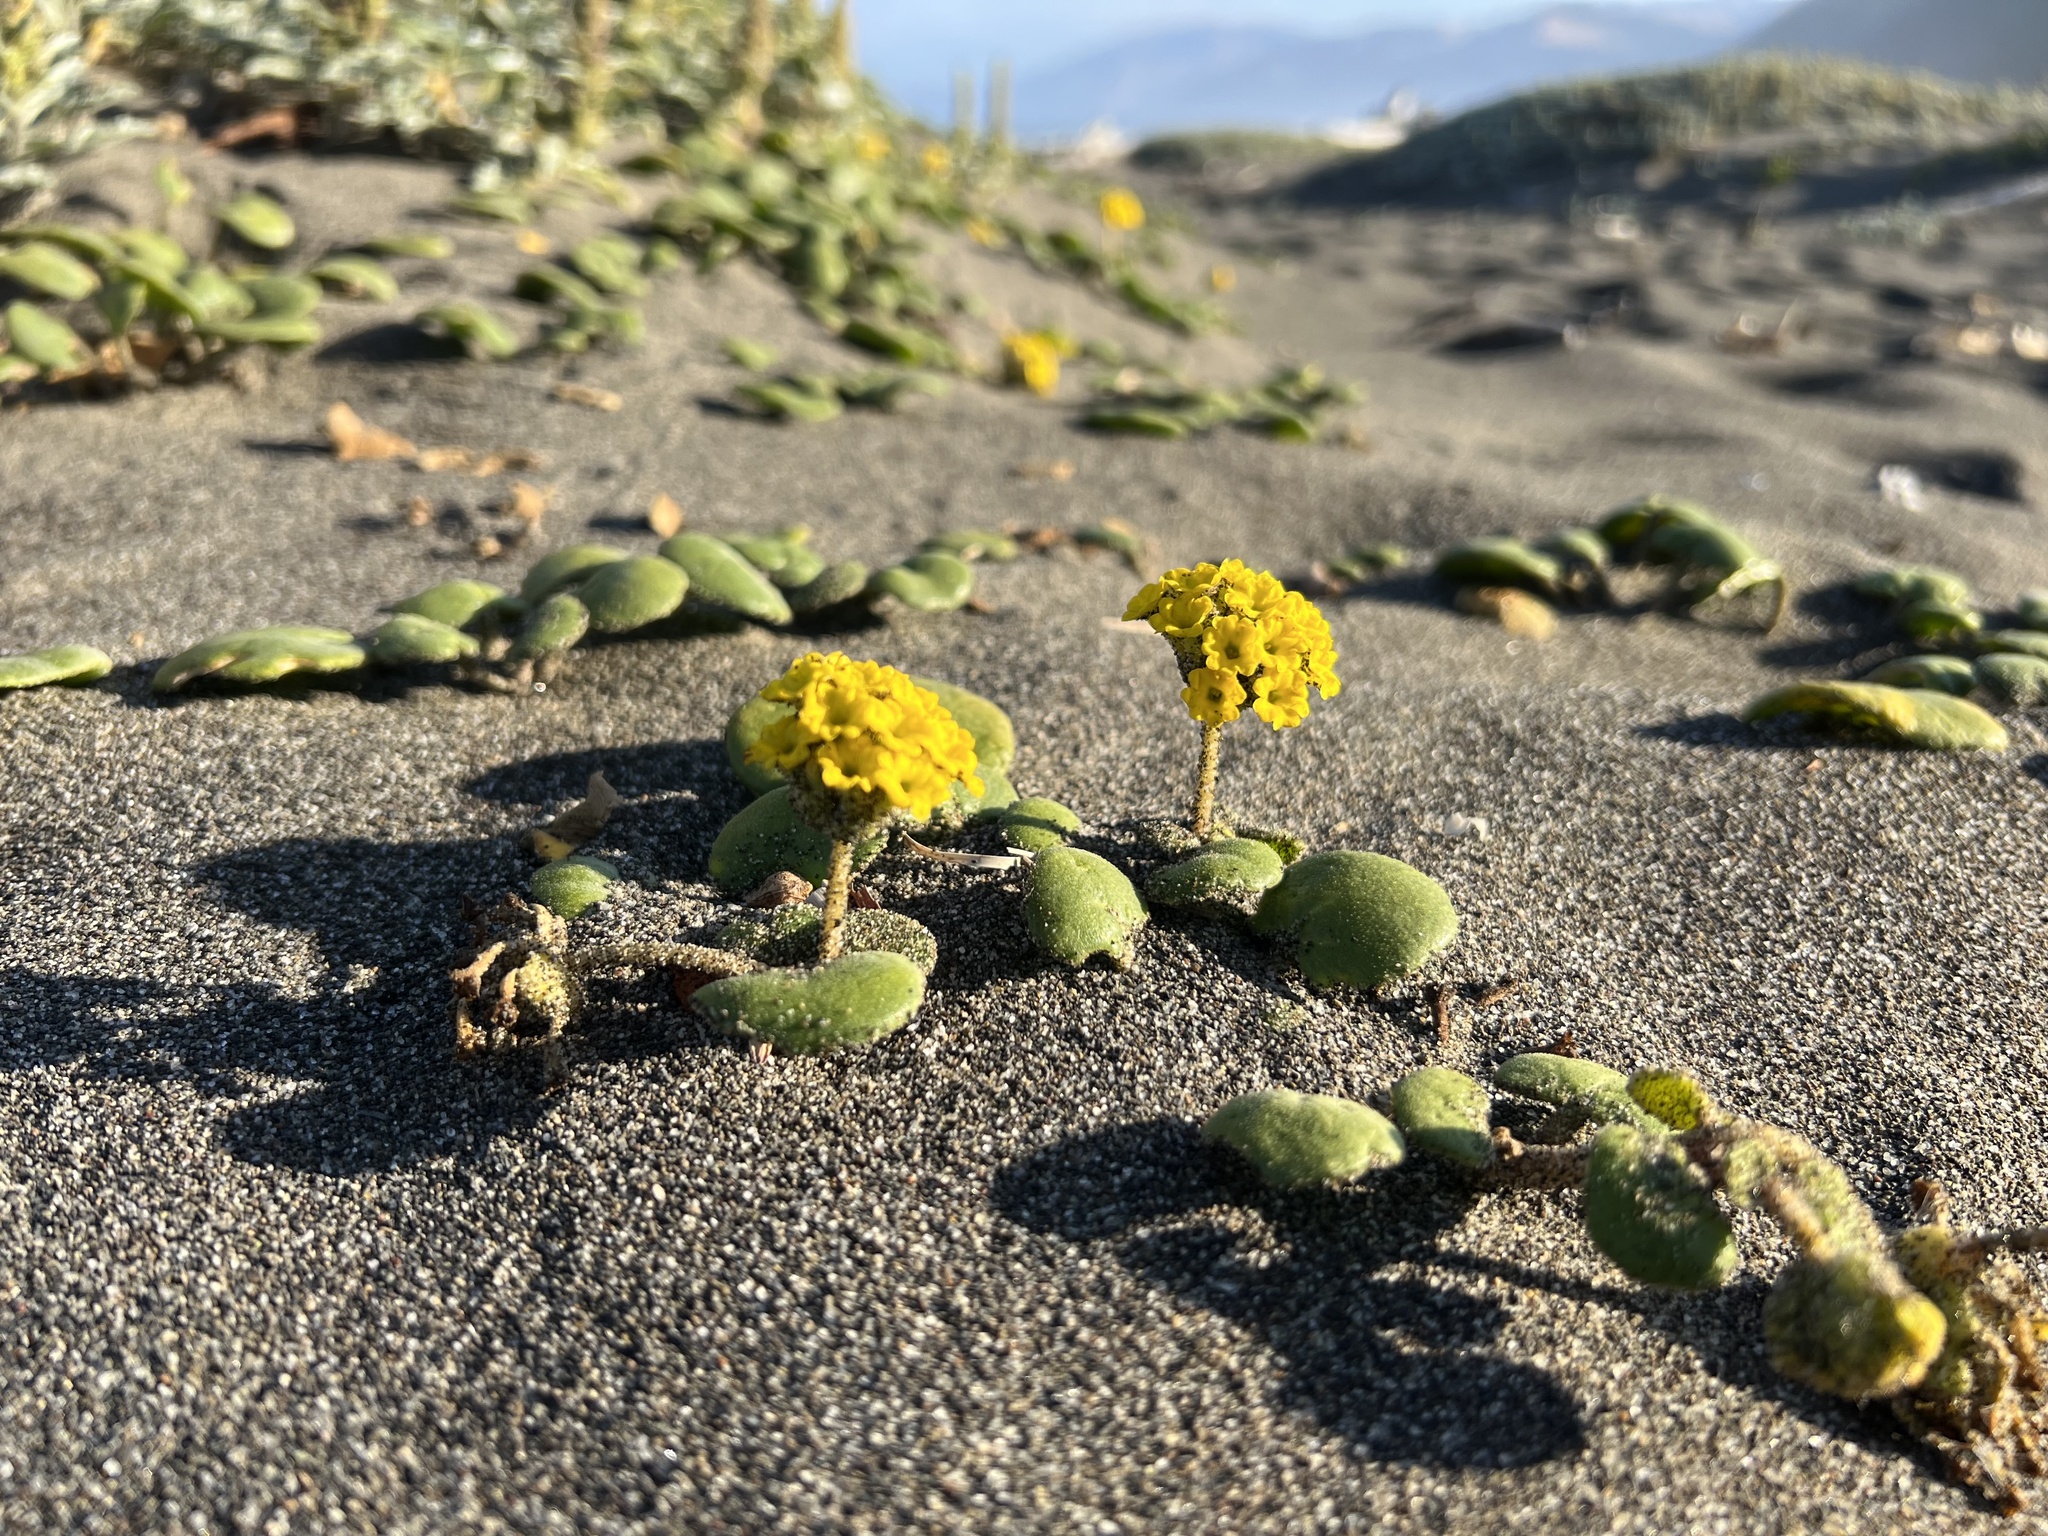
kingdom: Plantae
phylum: Tracheophyta
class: Magnoliopsida
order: Caryophyllales
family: Nyctaginaceae
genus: Abronia
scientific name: Abronia latifolia
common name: Yellow sand-verbena
